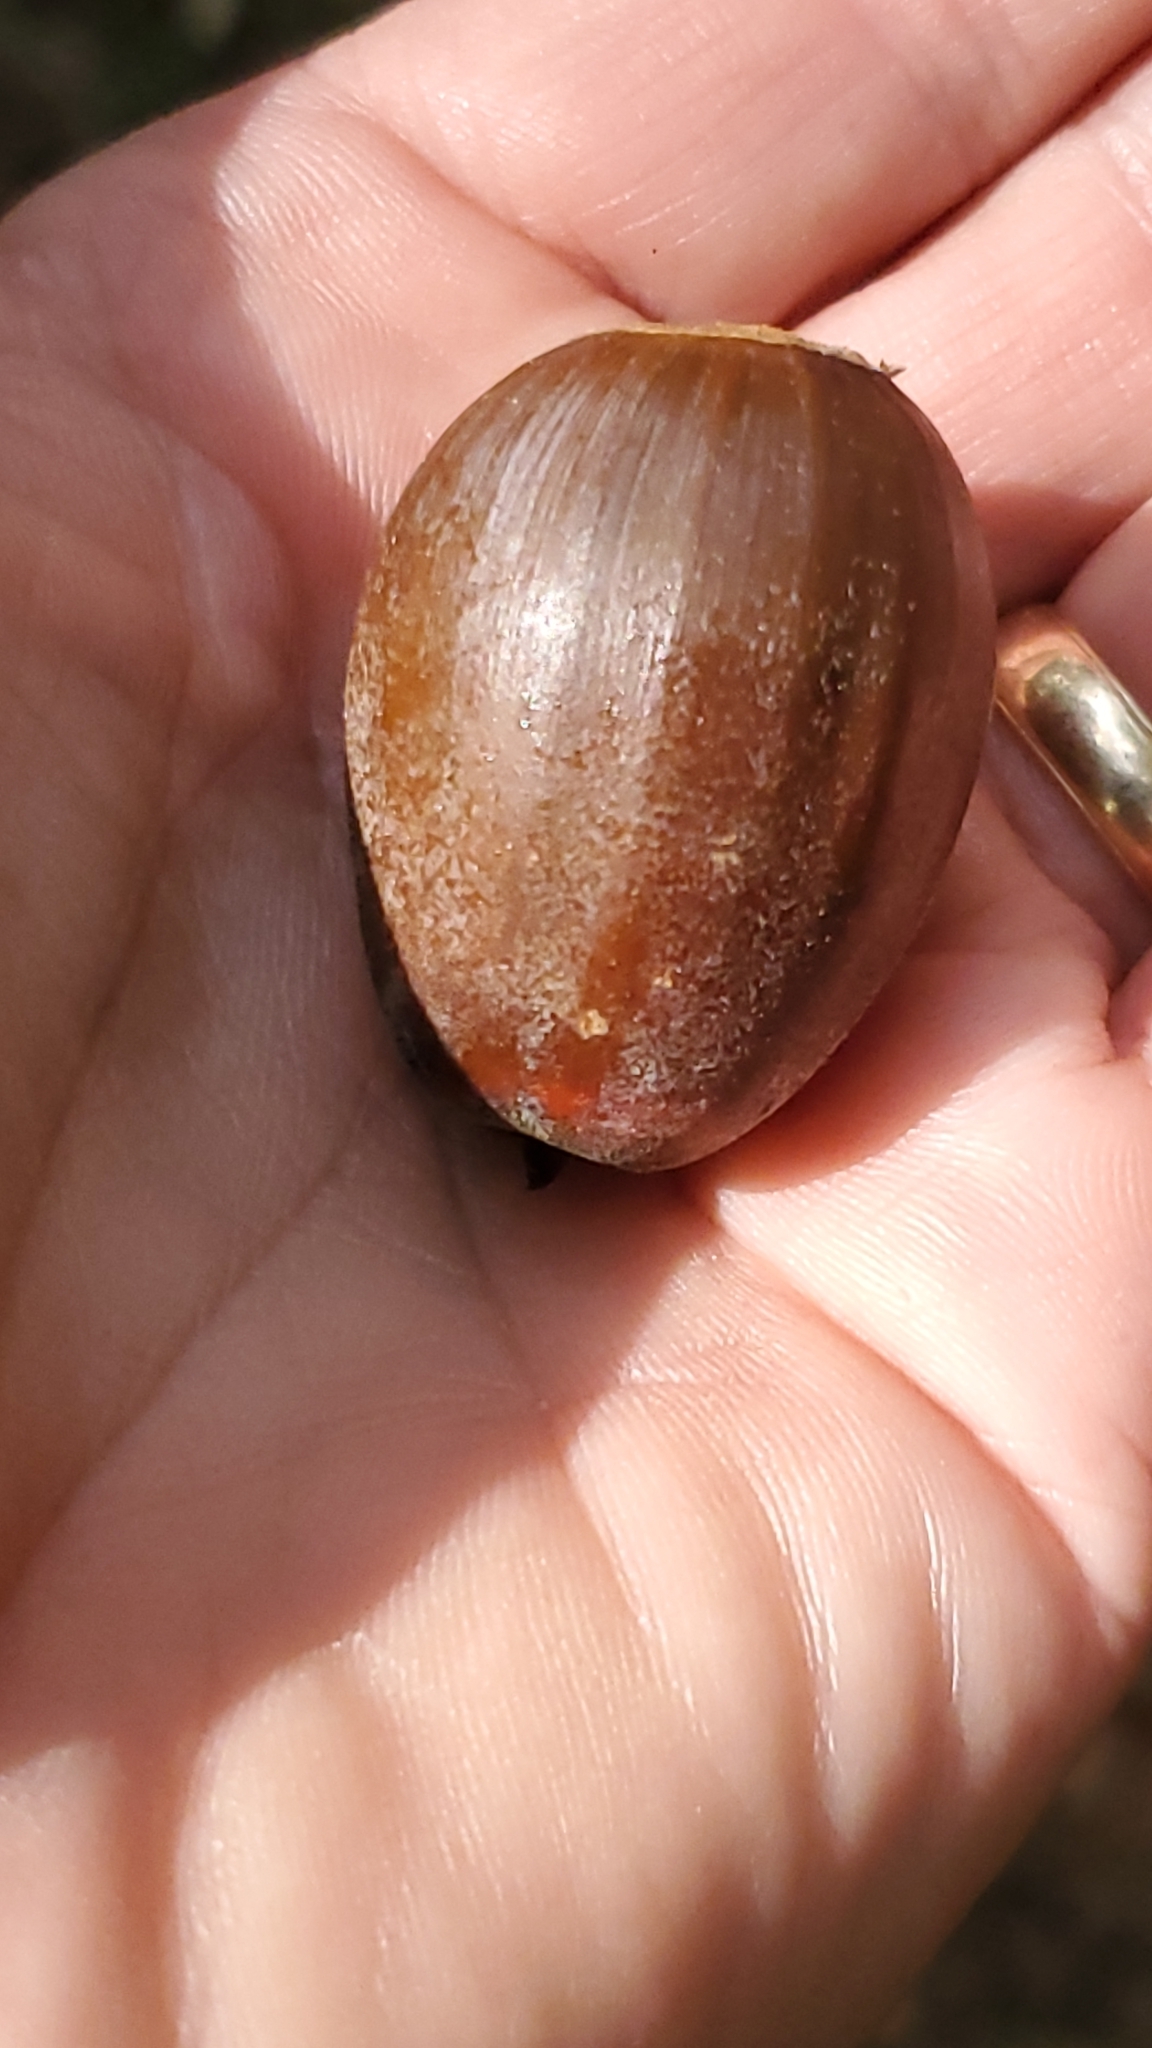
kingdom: Plantae
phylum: Tracheophyta
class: Magnoliopsida
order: Fagales
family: Fagaceae
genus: Quercus
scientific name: Quercus michauxii
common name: Swamp chestnut oak
